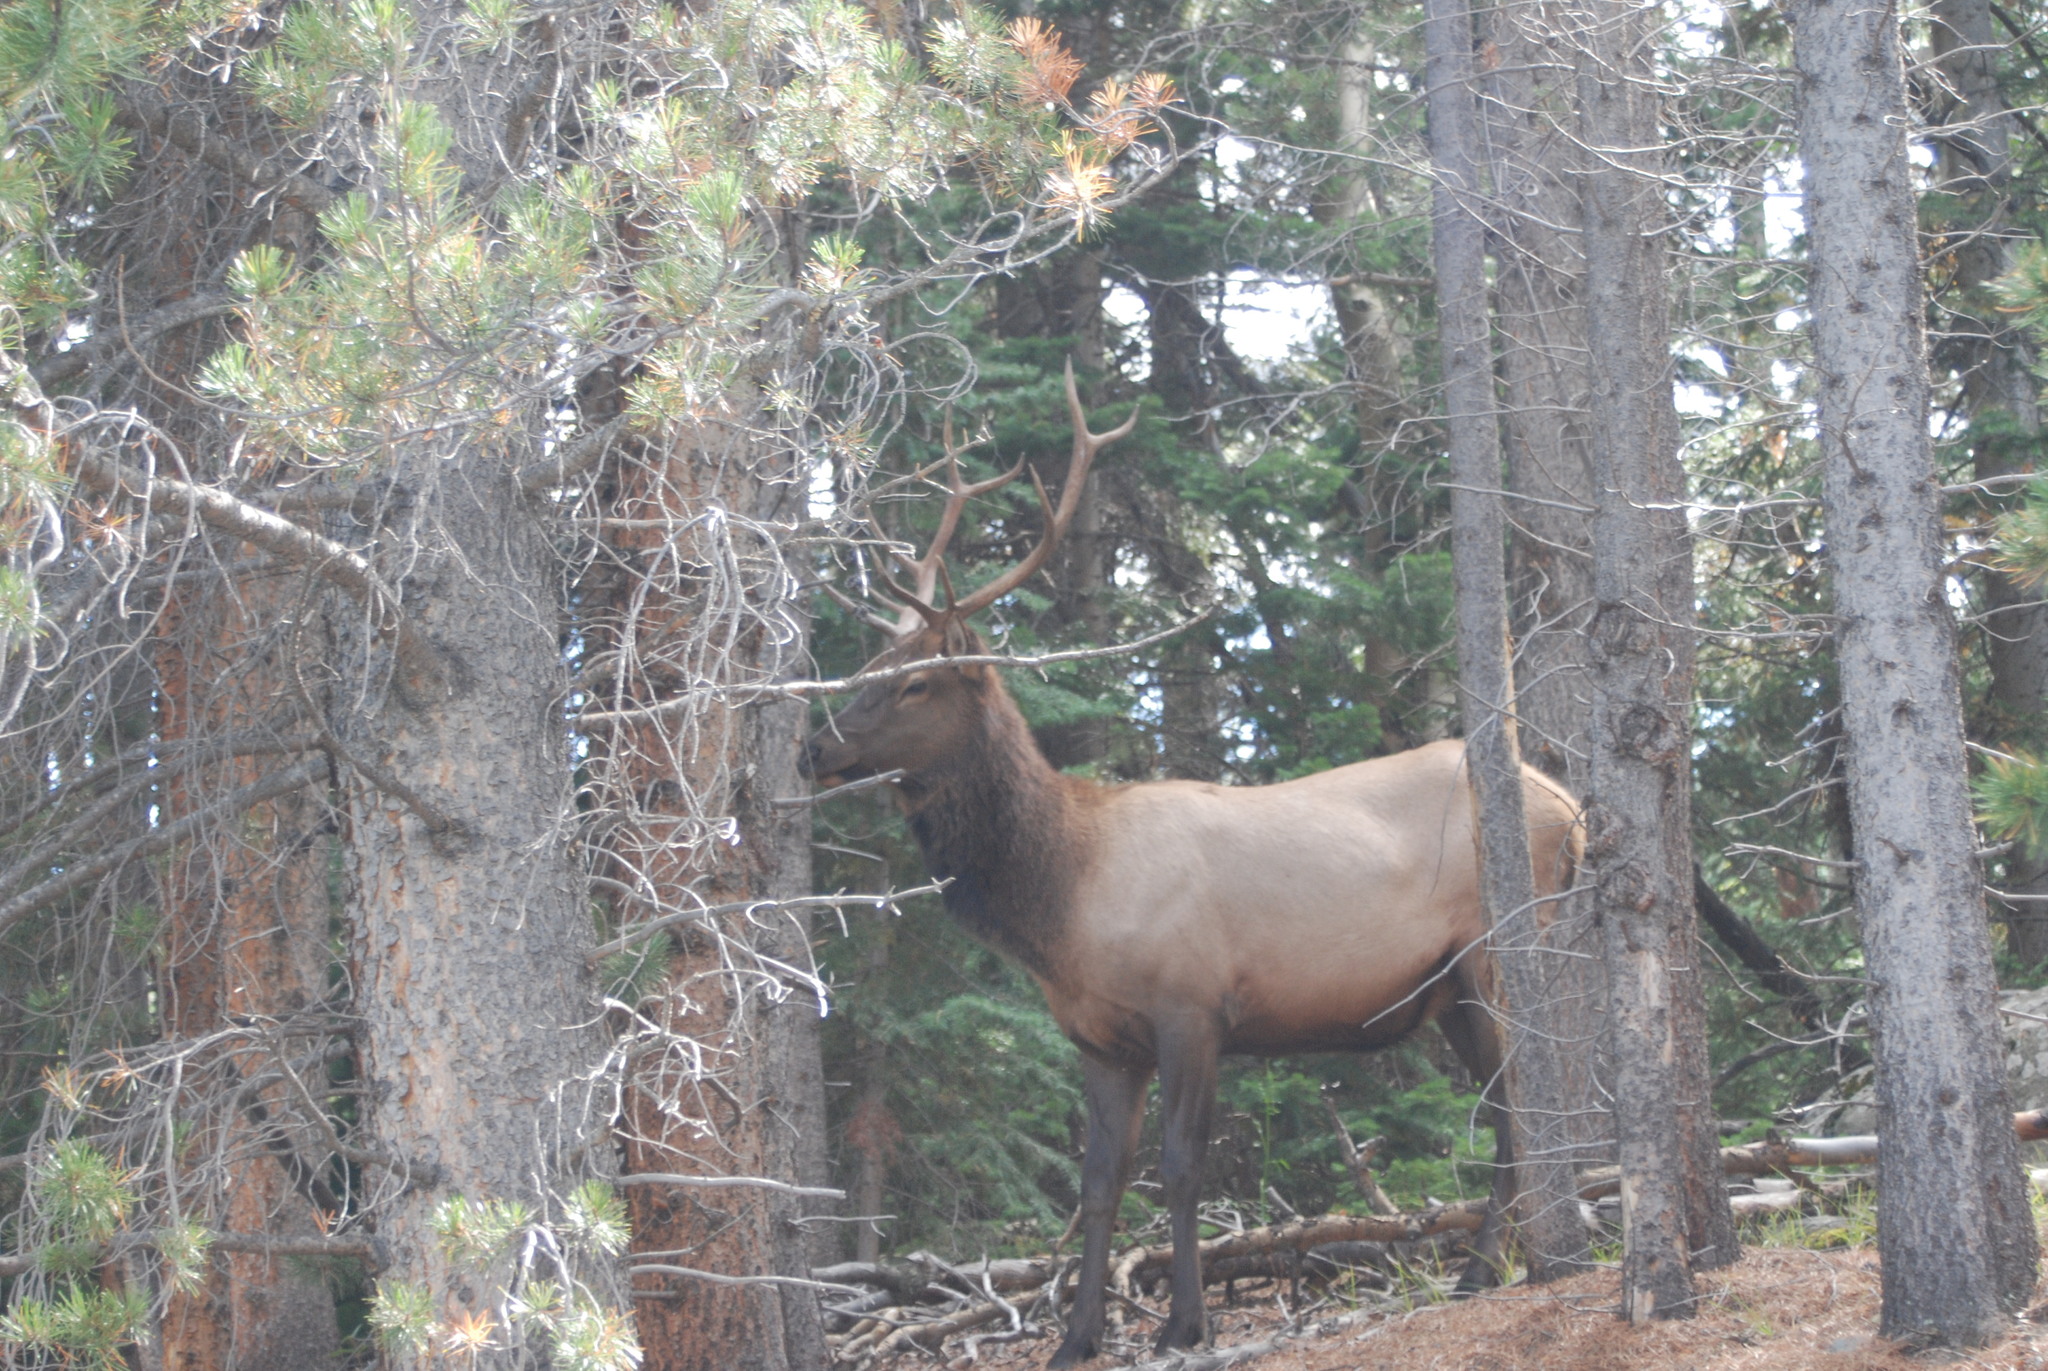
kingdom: Animalia
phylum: Chordata
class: Mammalia
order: Artiodactyla
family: Cervidae
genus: Cervus
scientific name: Cervus elaphus
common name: Red deer
